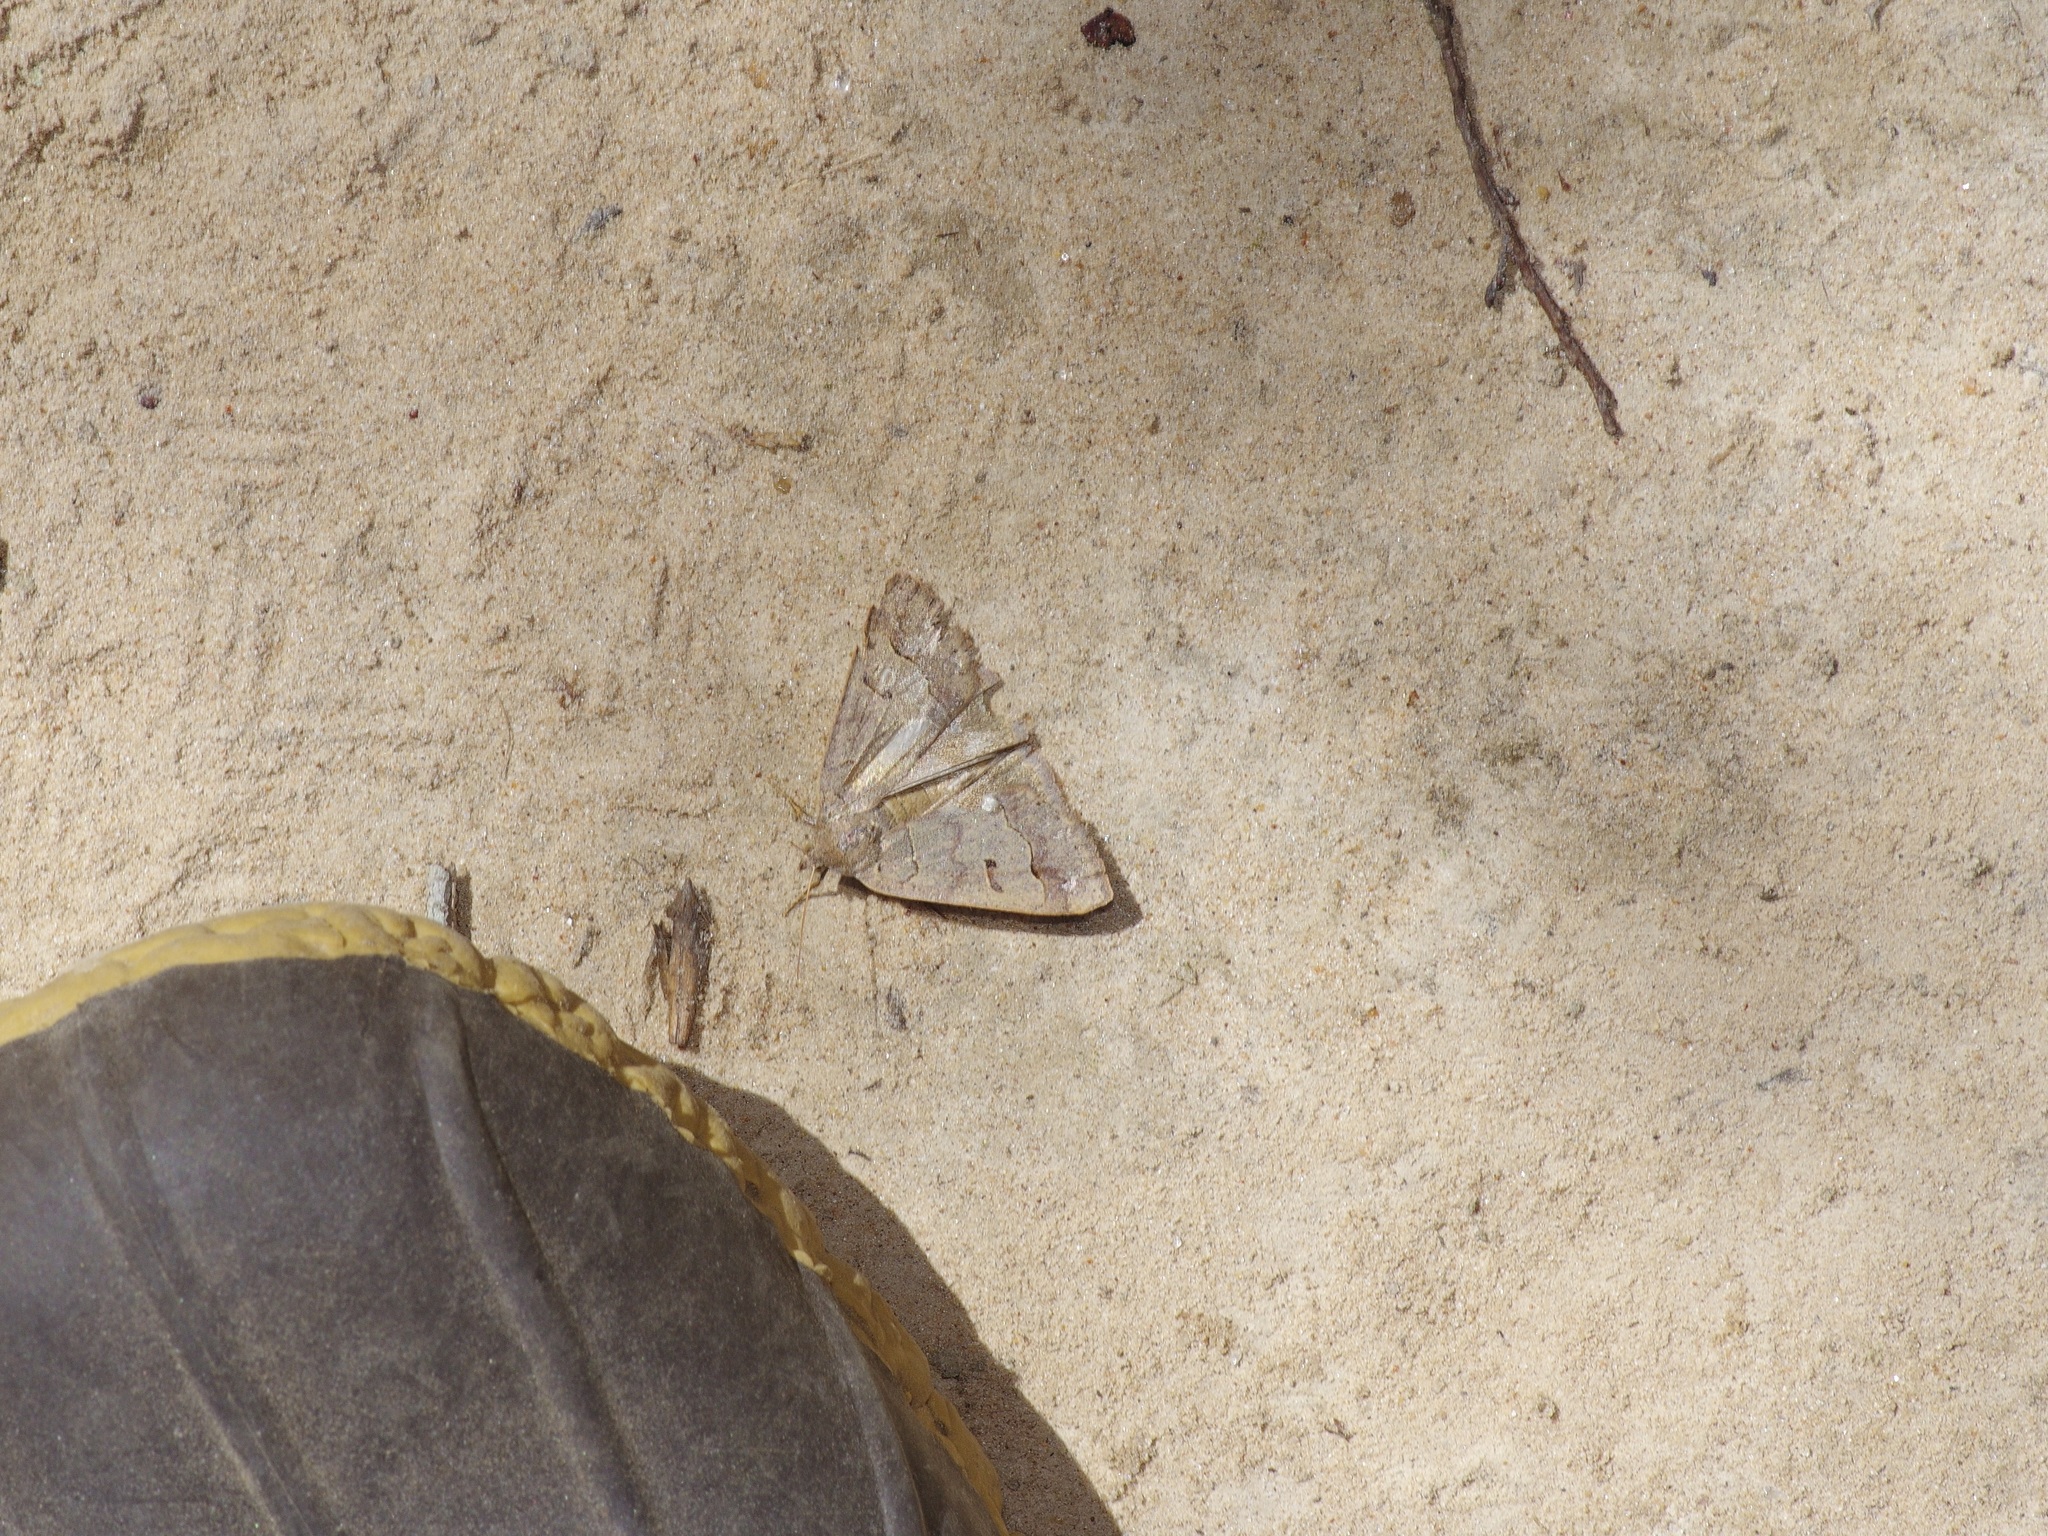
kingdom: Animalia
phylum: Arthropoda
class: Insecta
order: Lepidoptera
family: Erebidae
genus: Phoberia
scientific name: Phoberia atomaris
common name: Common oak moth
